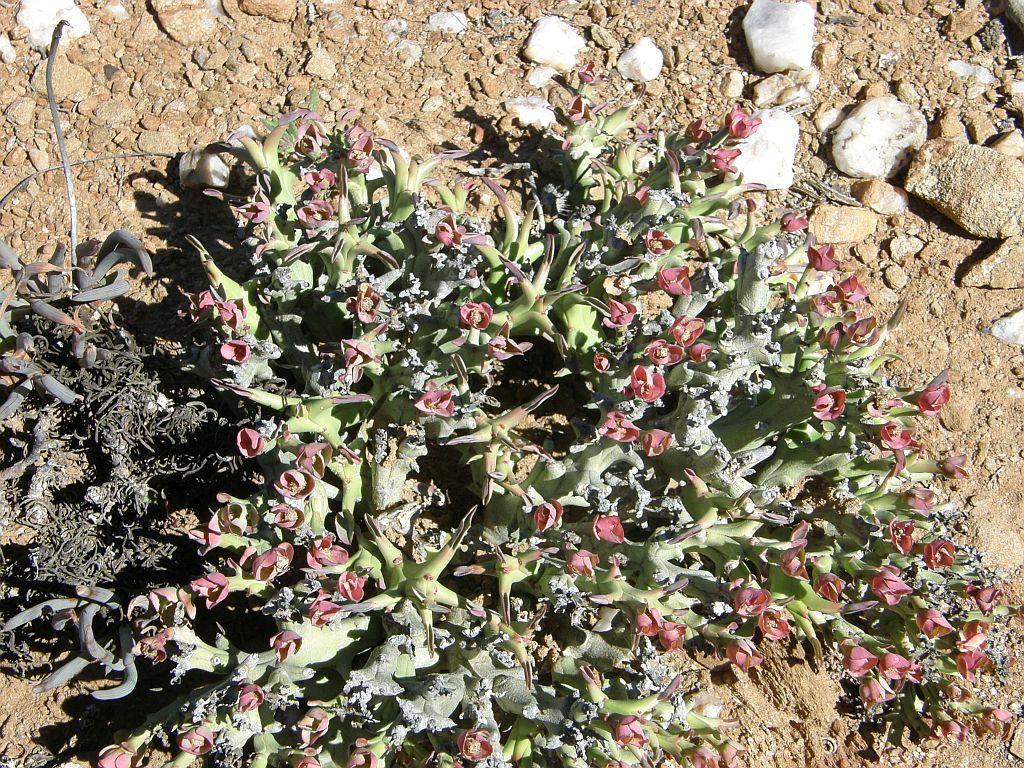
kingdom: Plantae
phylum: Tracheophyta
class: Magnoliopsida
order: Malpighiales
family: Euphorbiaceae
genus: Euphorbia
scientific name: Euphorbia hamata
